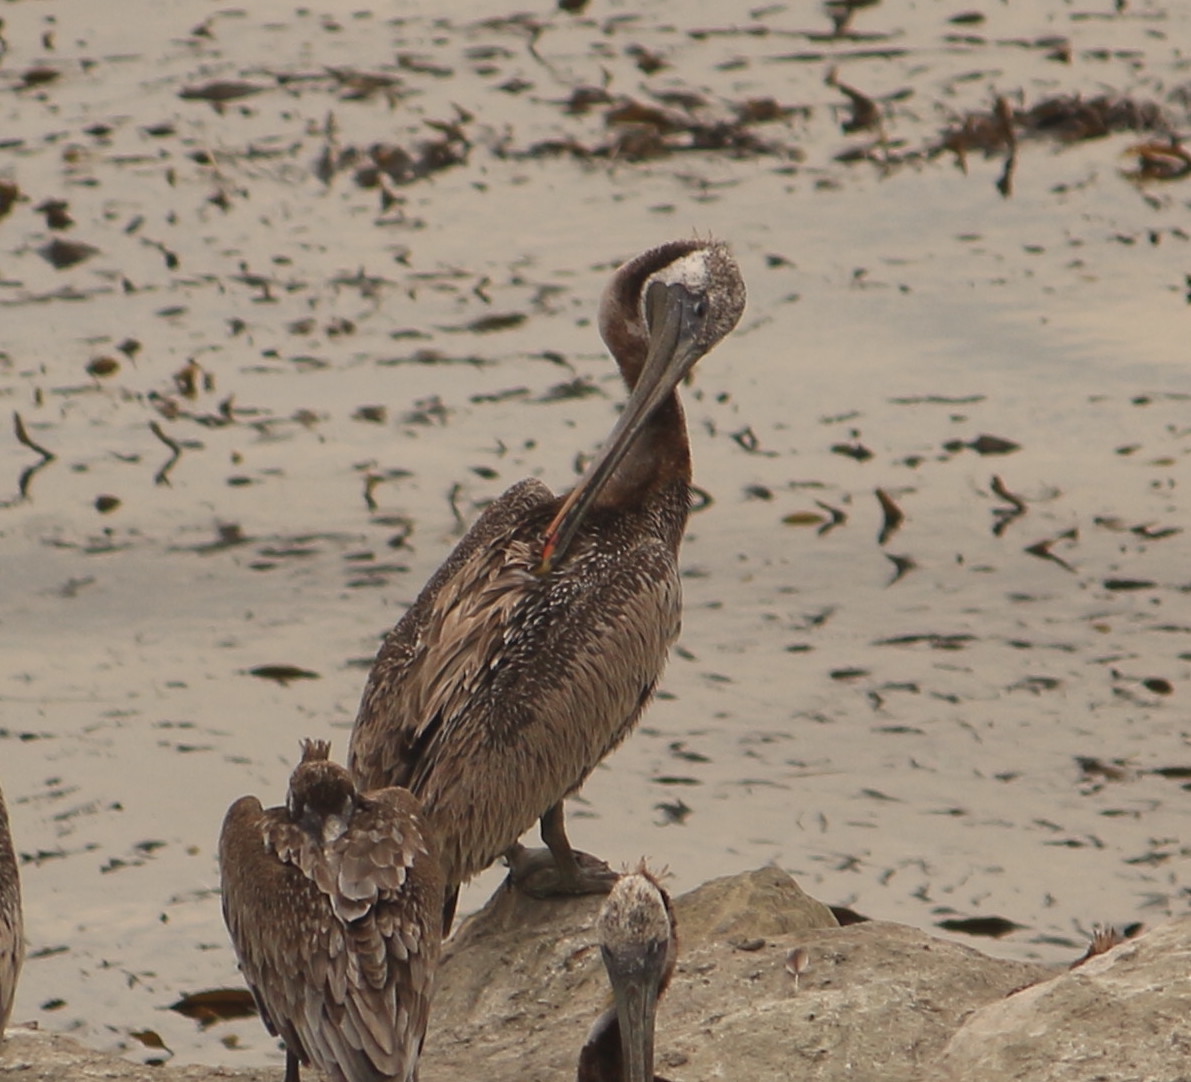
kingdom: Animalia
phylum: Chordata
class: Aves
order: Pelecaniformes
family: Pelecanidae
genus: Pelecanus
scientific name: Pelecanus occidentalis
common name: Brown pelican
